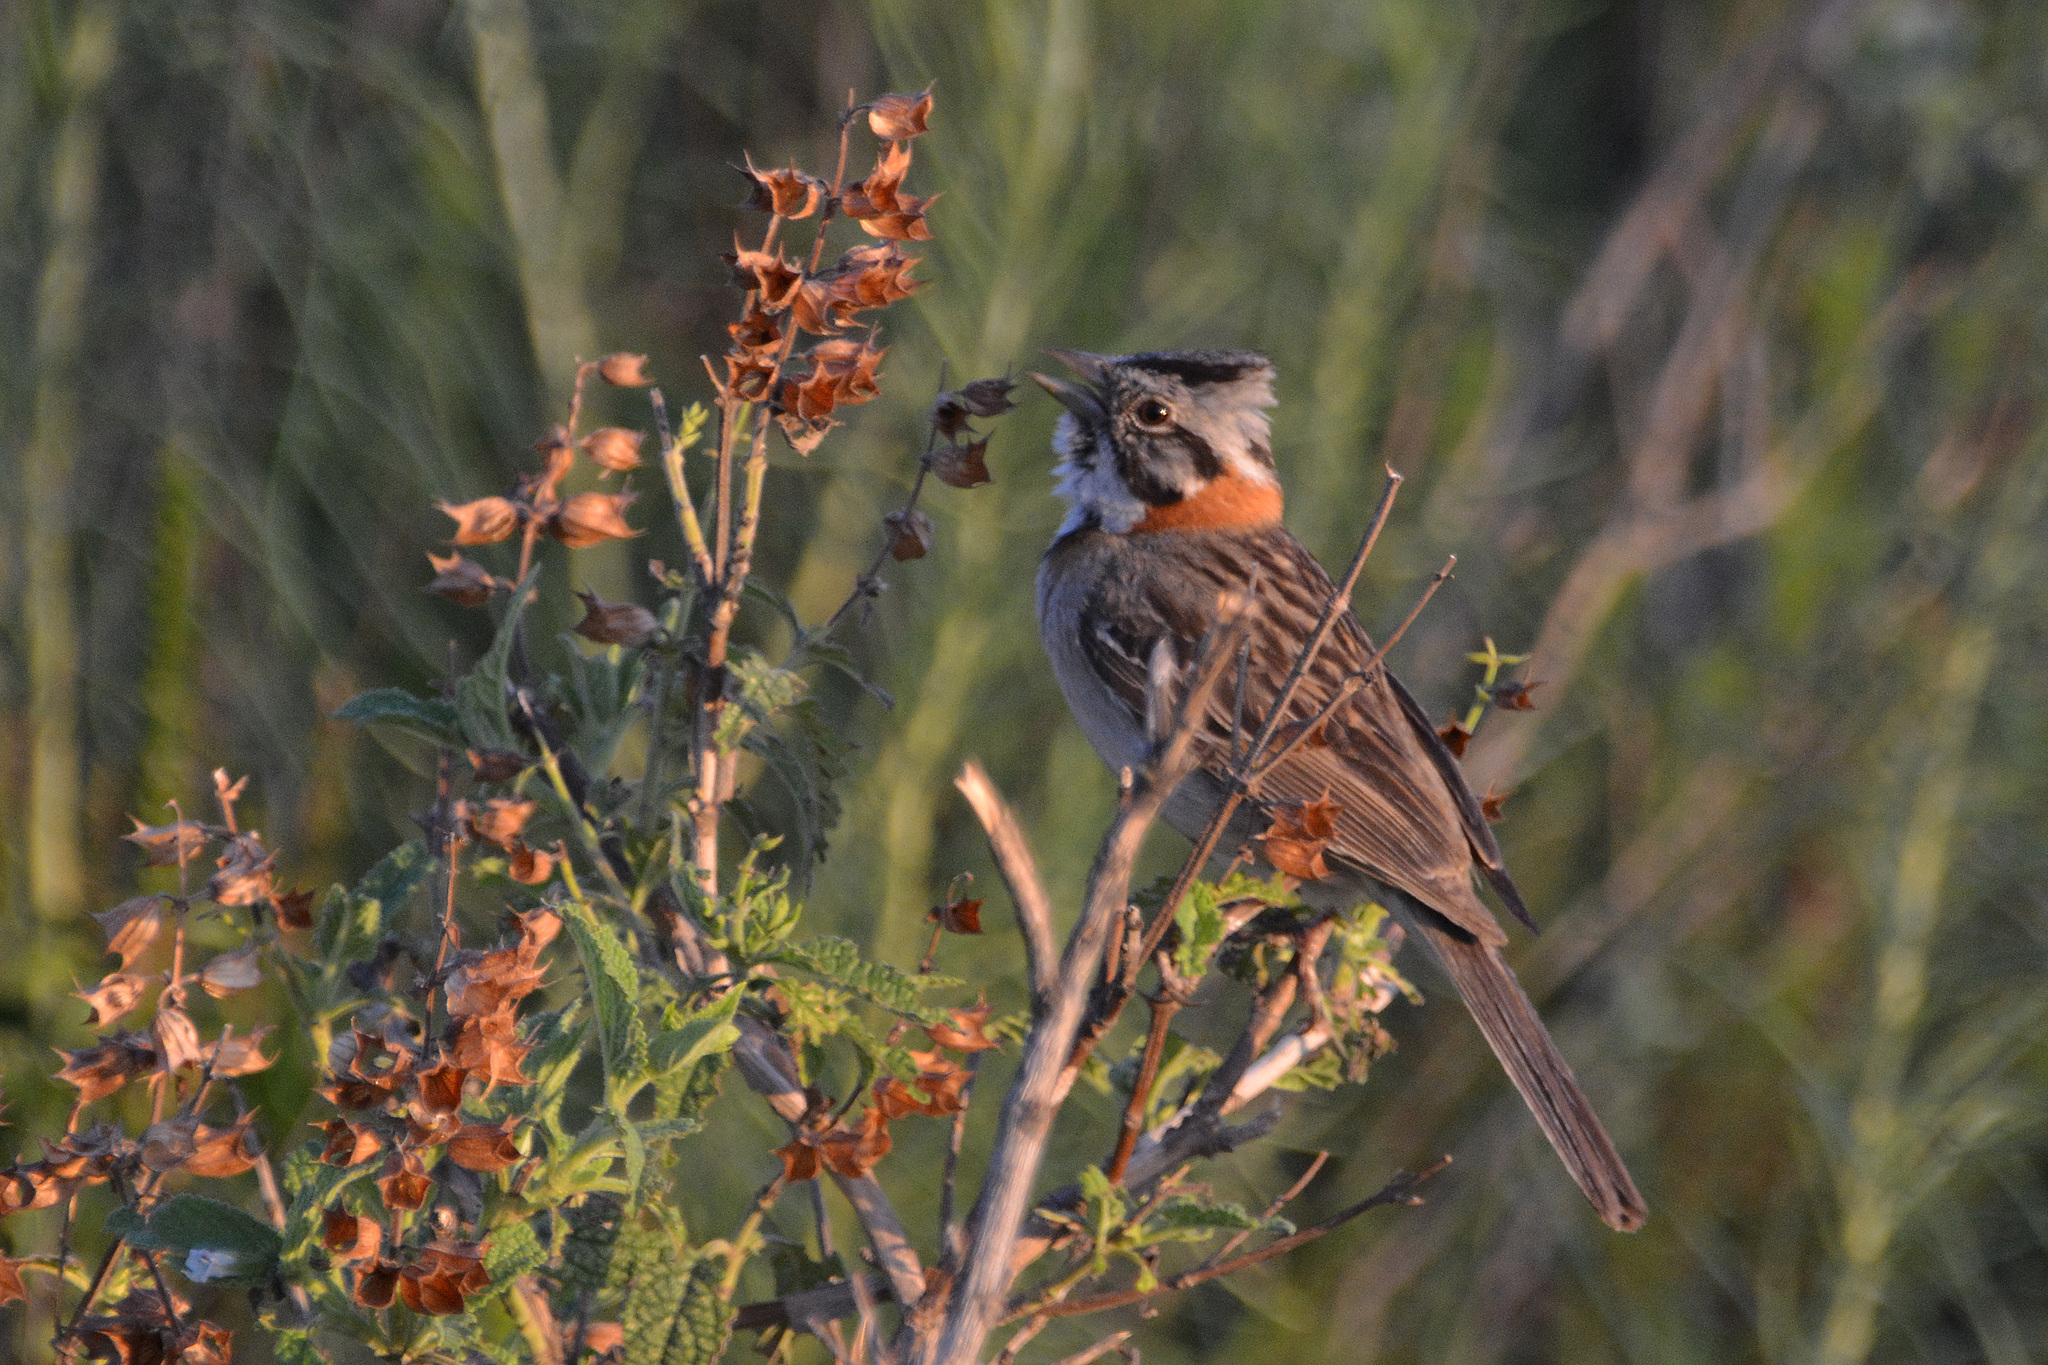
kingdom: Animalia
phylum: Chordata
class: Aves
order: Passeriformes
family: Passerellidae
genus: Zonotrichia
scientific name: Zonotrichia capensis
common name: Rufous-collared sparrow
